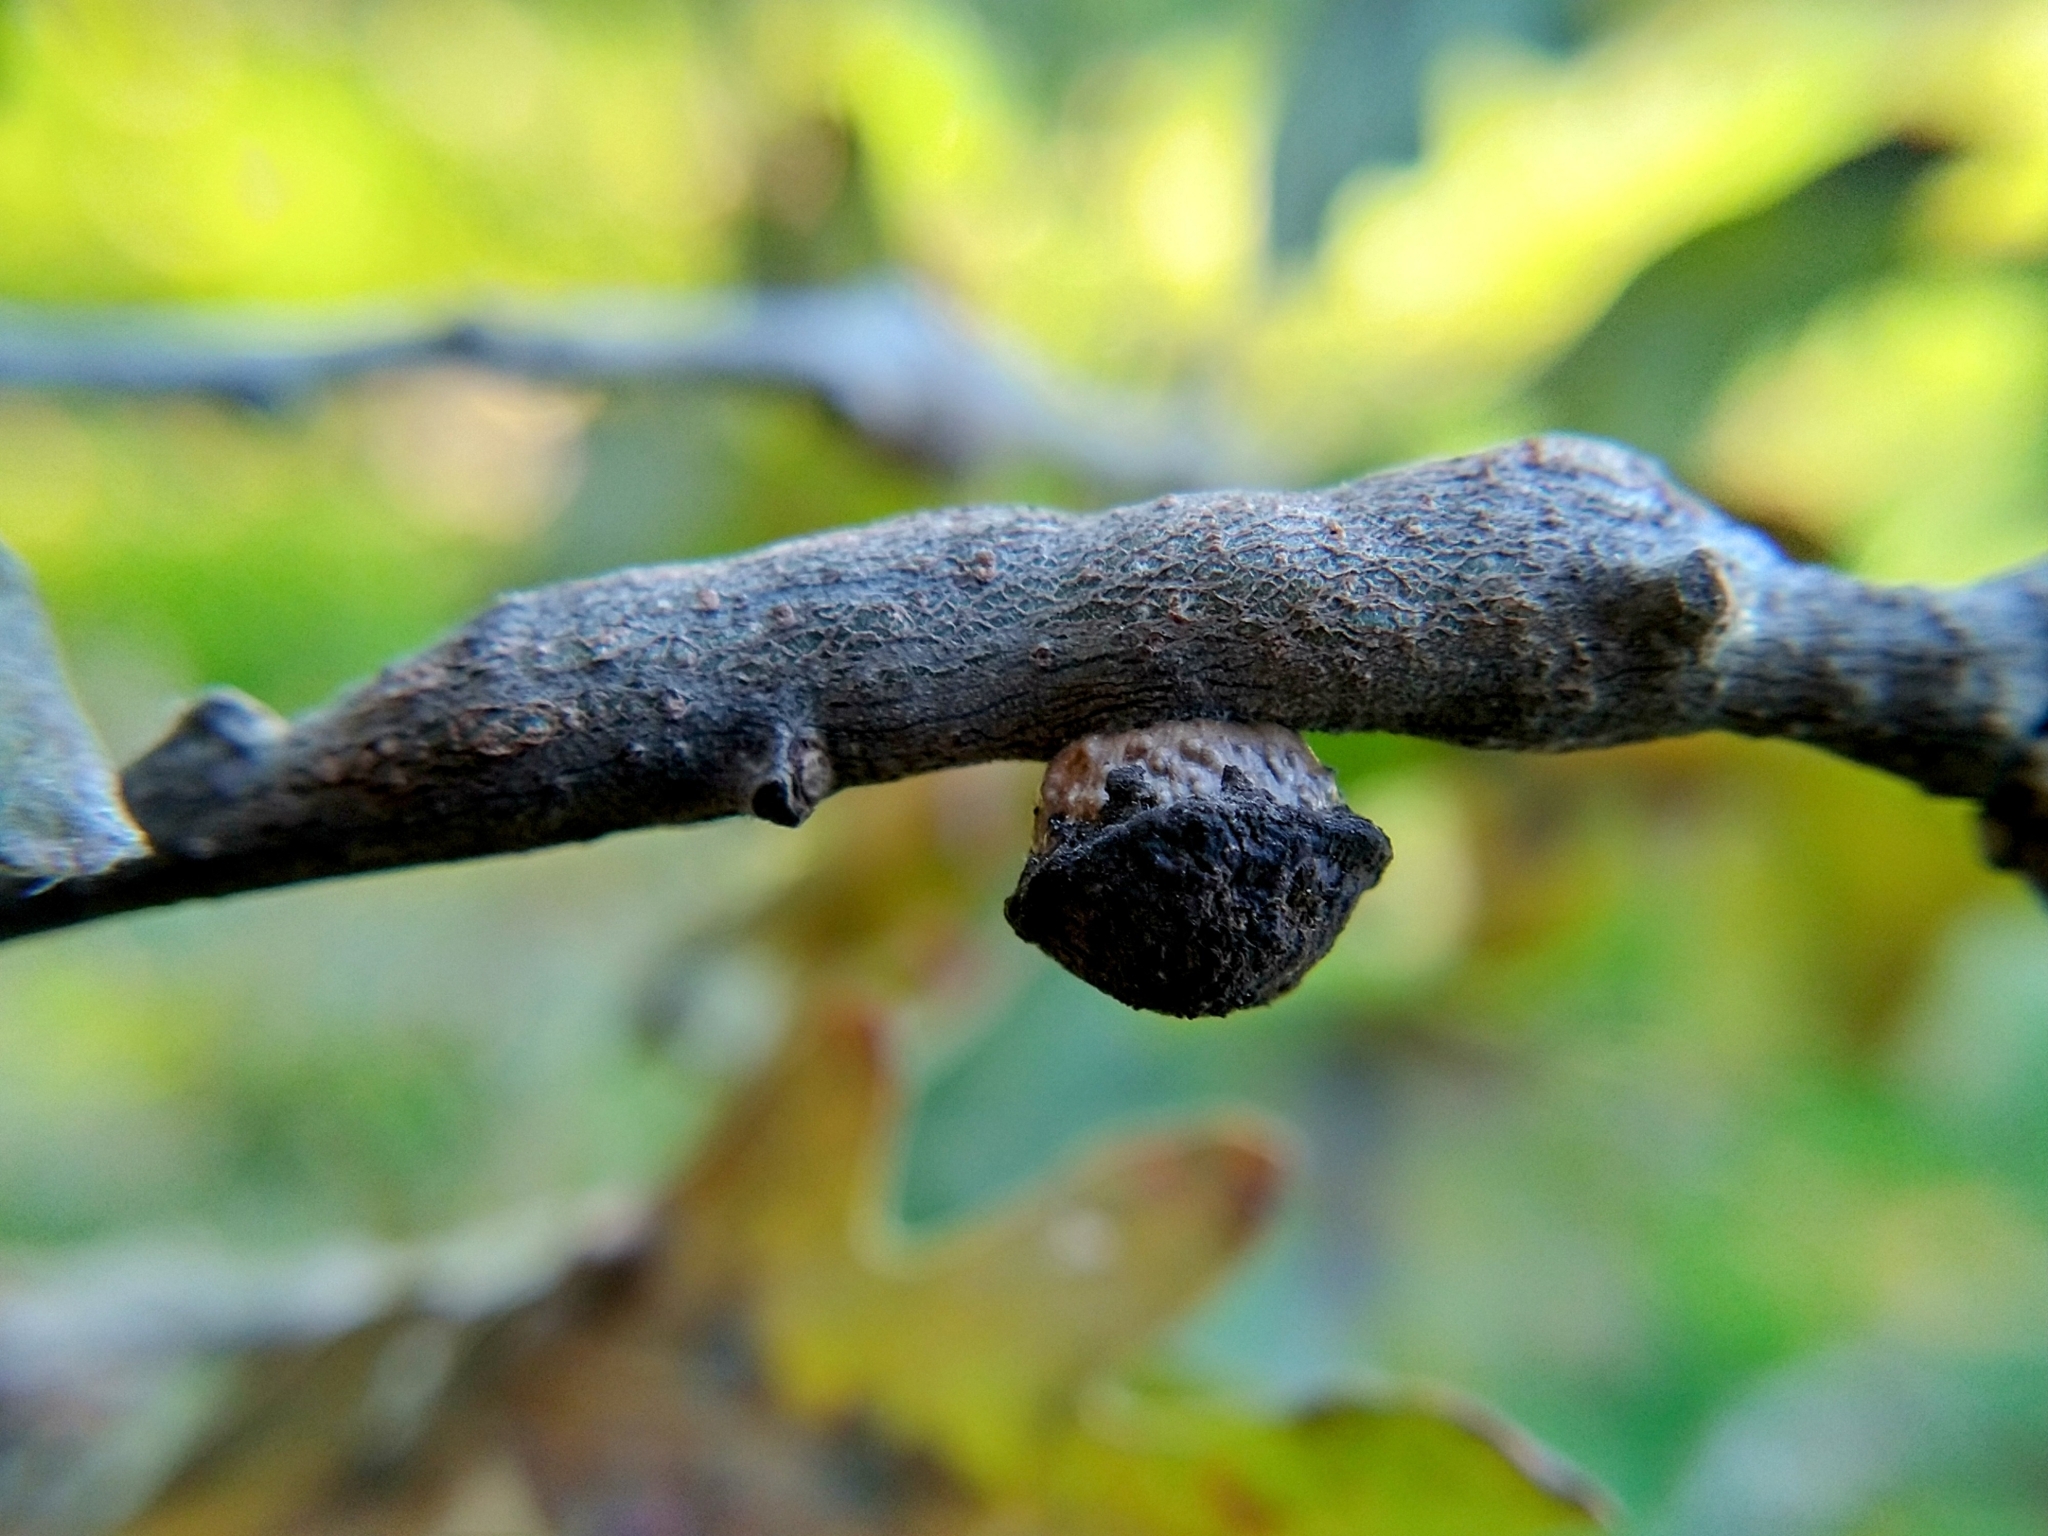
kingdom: Animalia
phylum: Arthropoda
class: Insecta
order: Hymenoptera
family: Cynipidae
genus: Disholcaspis
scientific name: Disholcaspis
